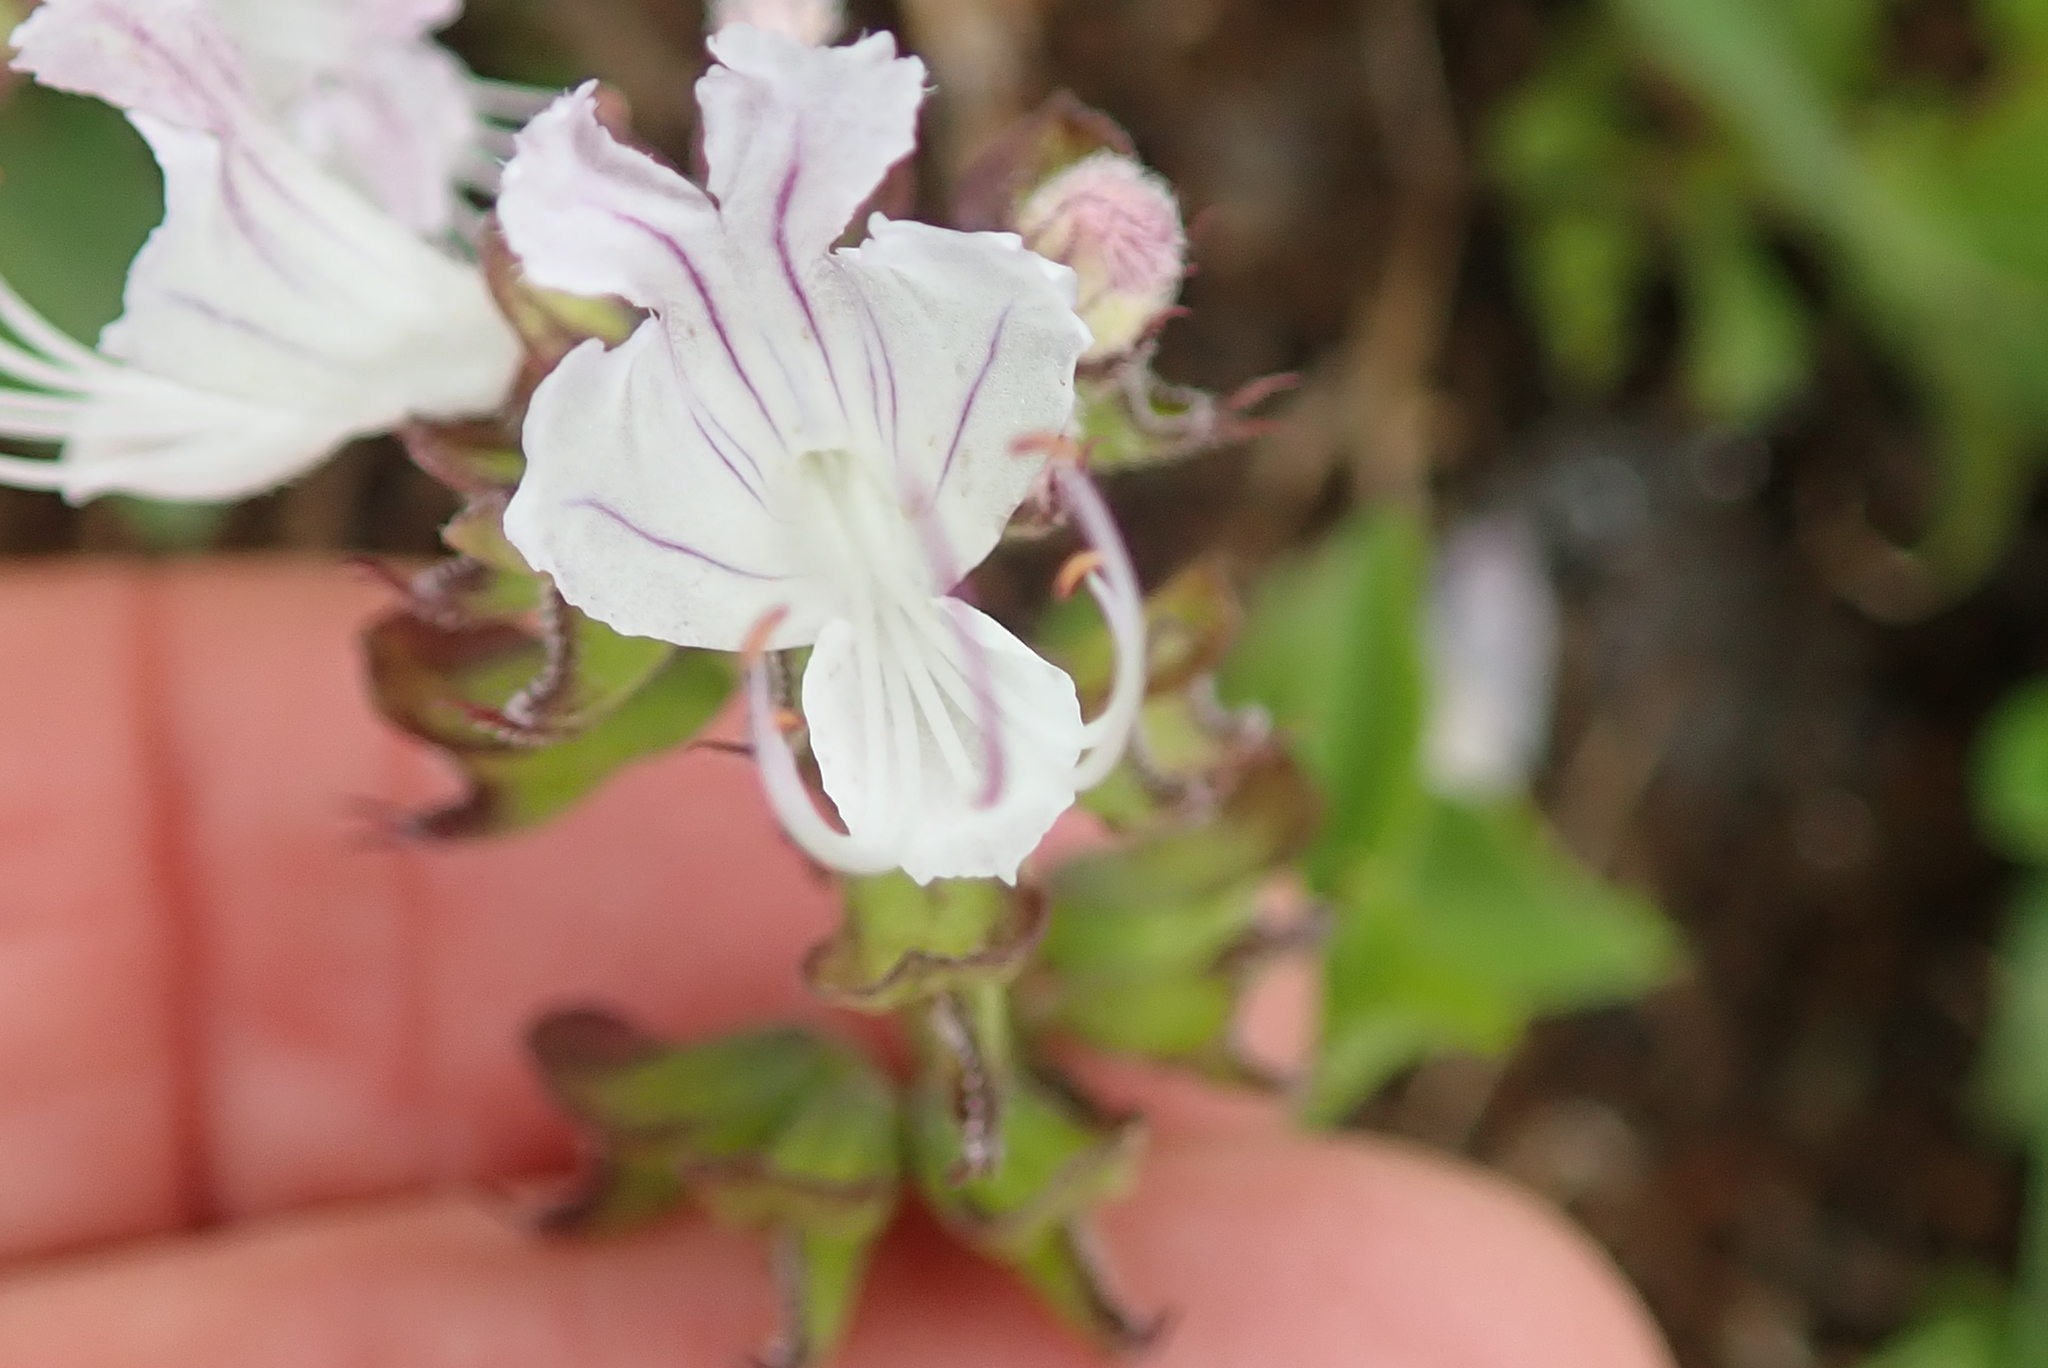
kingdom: Plantae
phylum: Tracheophyta
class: Magnoliopsida
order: Lamiales
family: Lamiaceae
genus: Ocimum
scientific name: Ocimum obovatum
